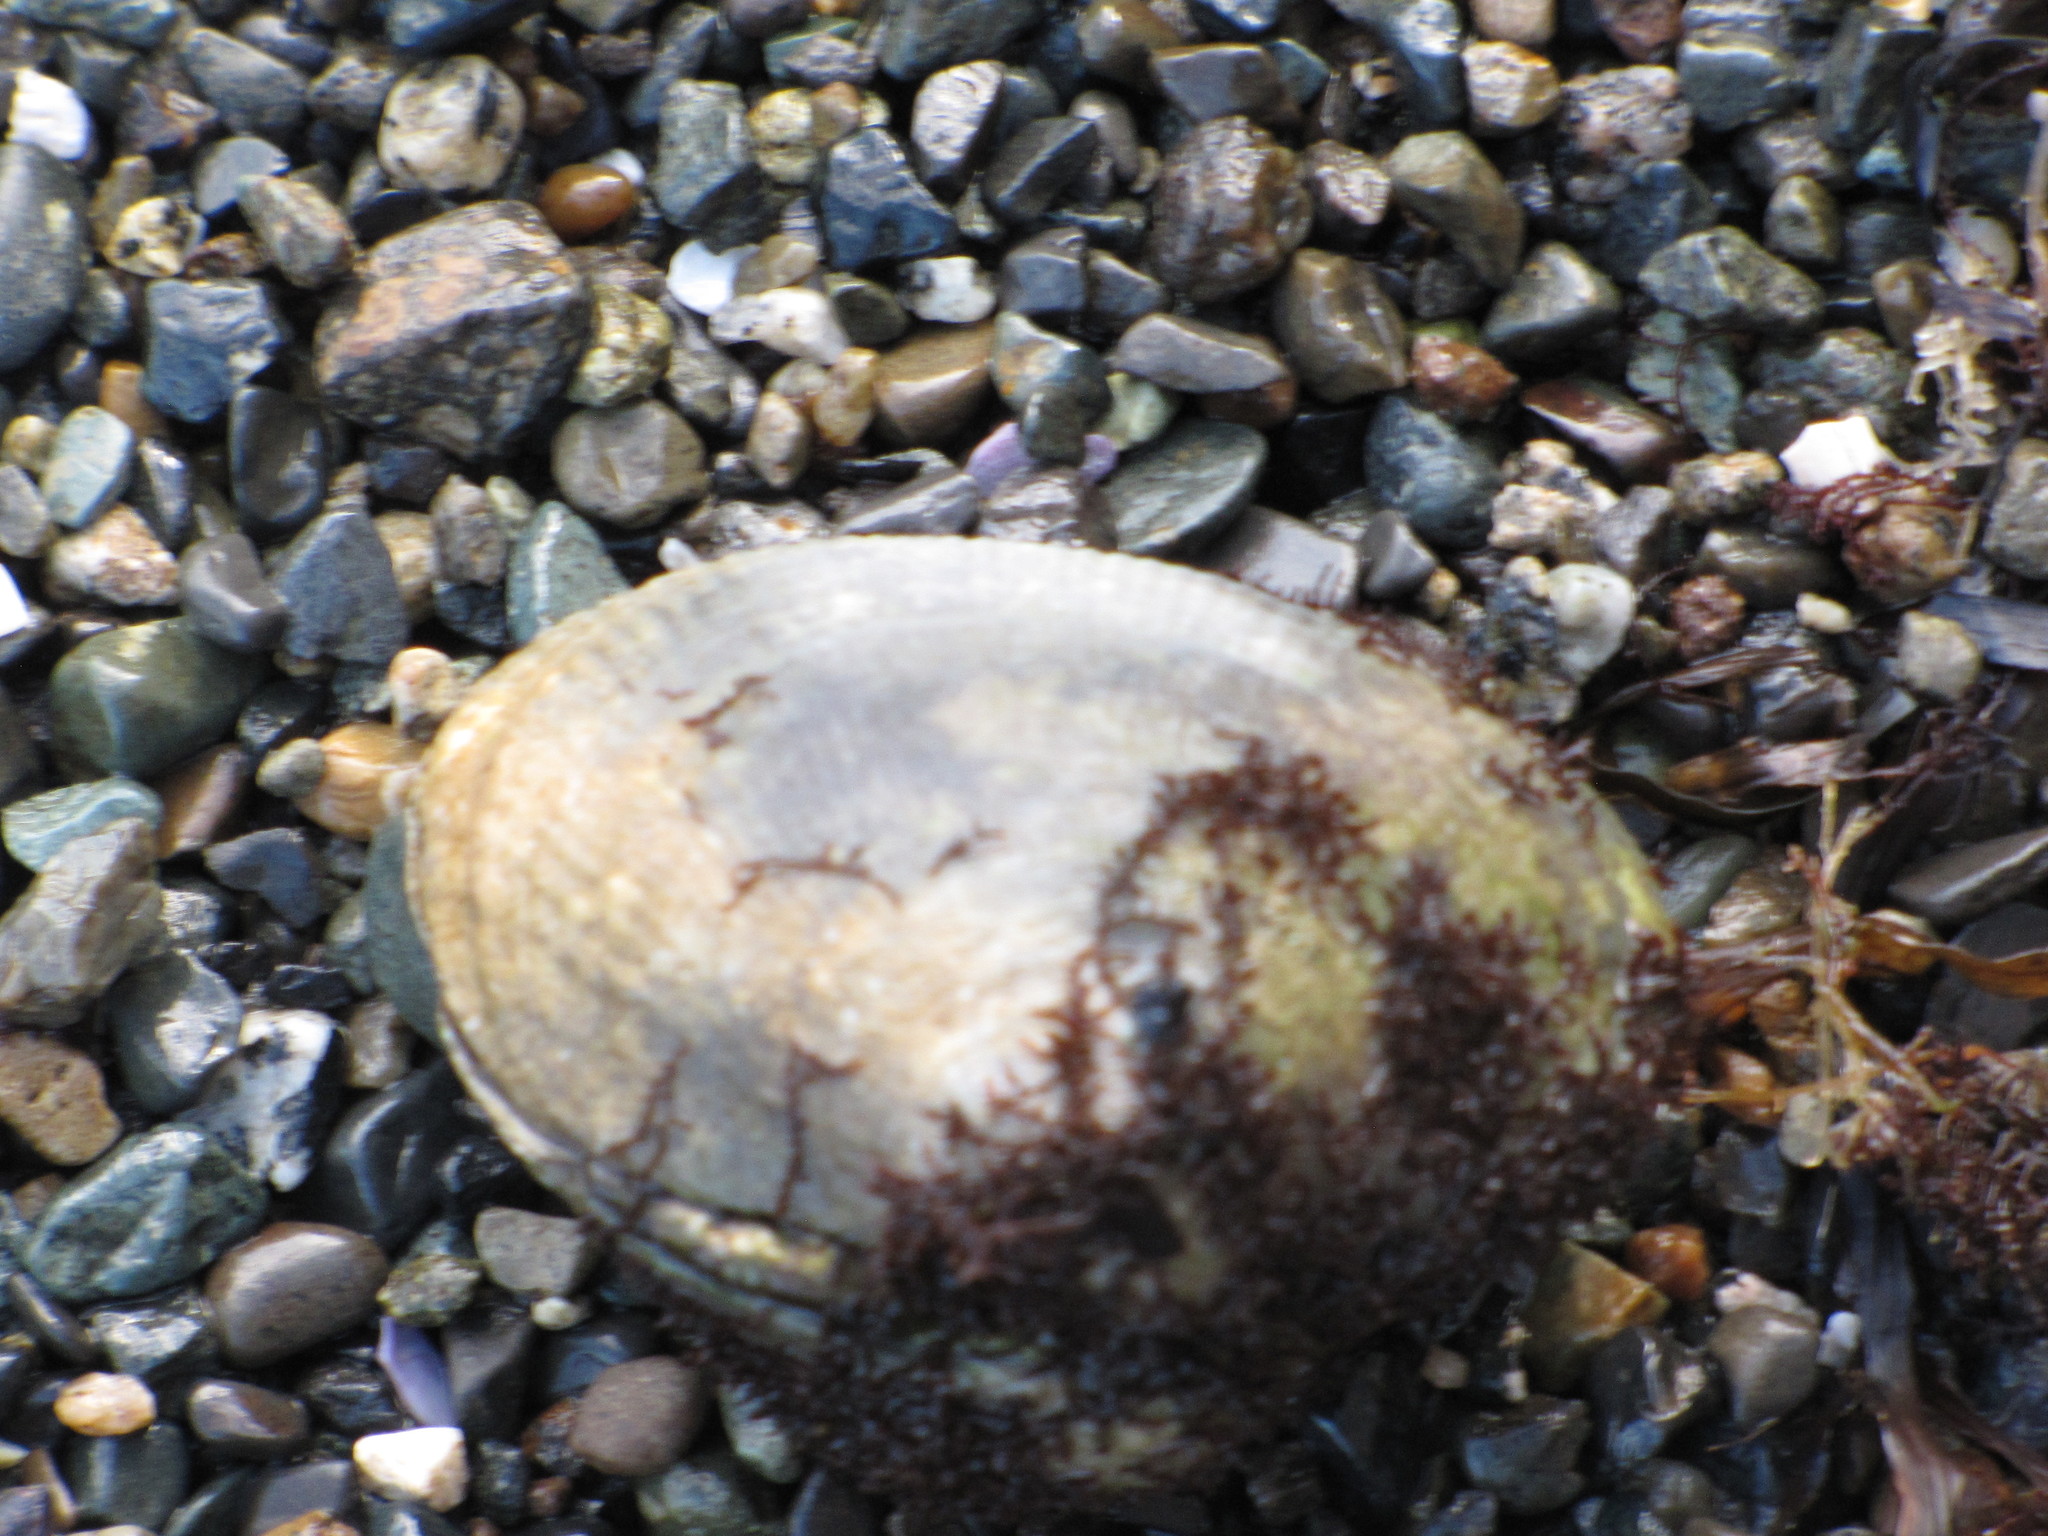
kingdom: Animalia
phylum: Mollusca
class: Bivalvia
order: Venerida
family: Veneridae
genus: Ruditapes
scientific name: Ruditapes philippinarum
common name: Manila clam
